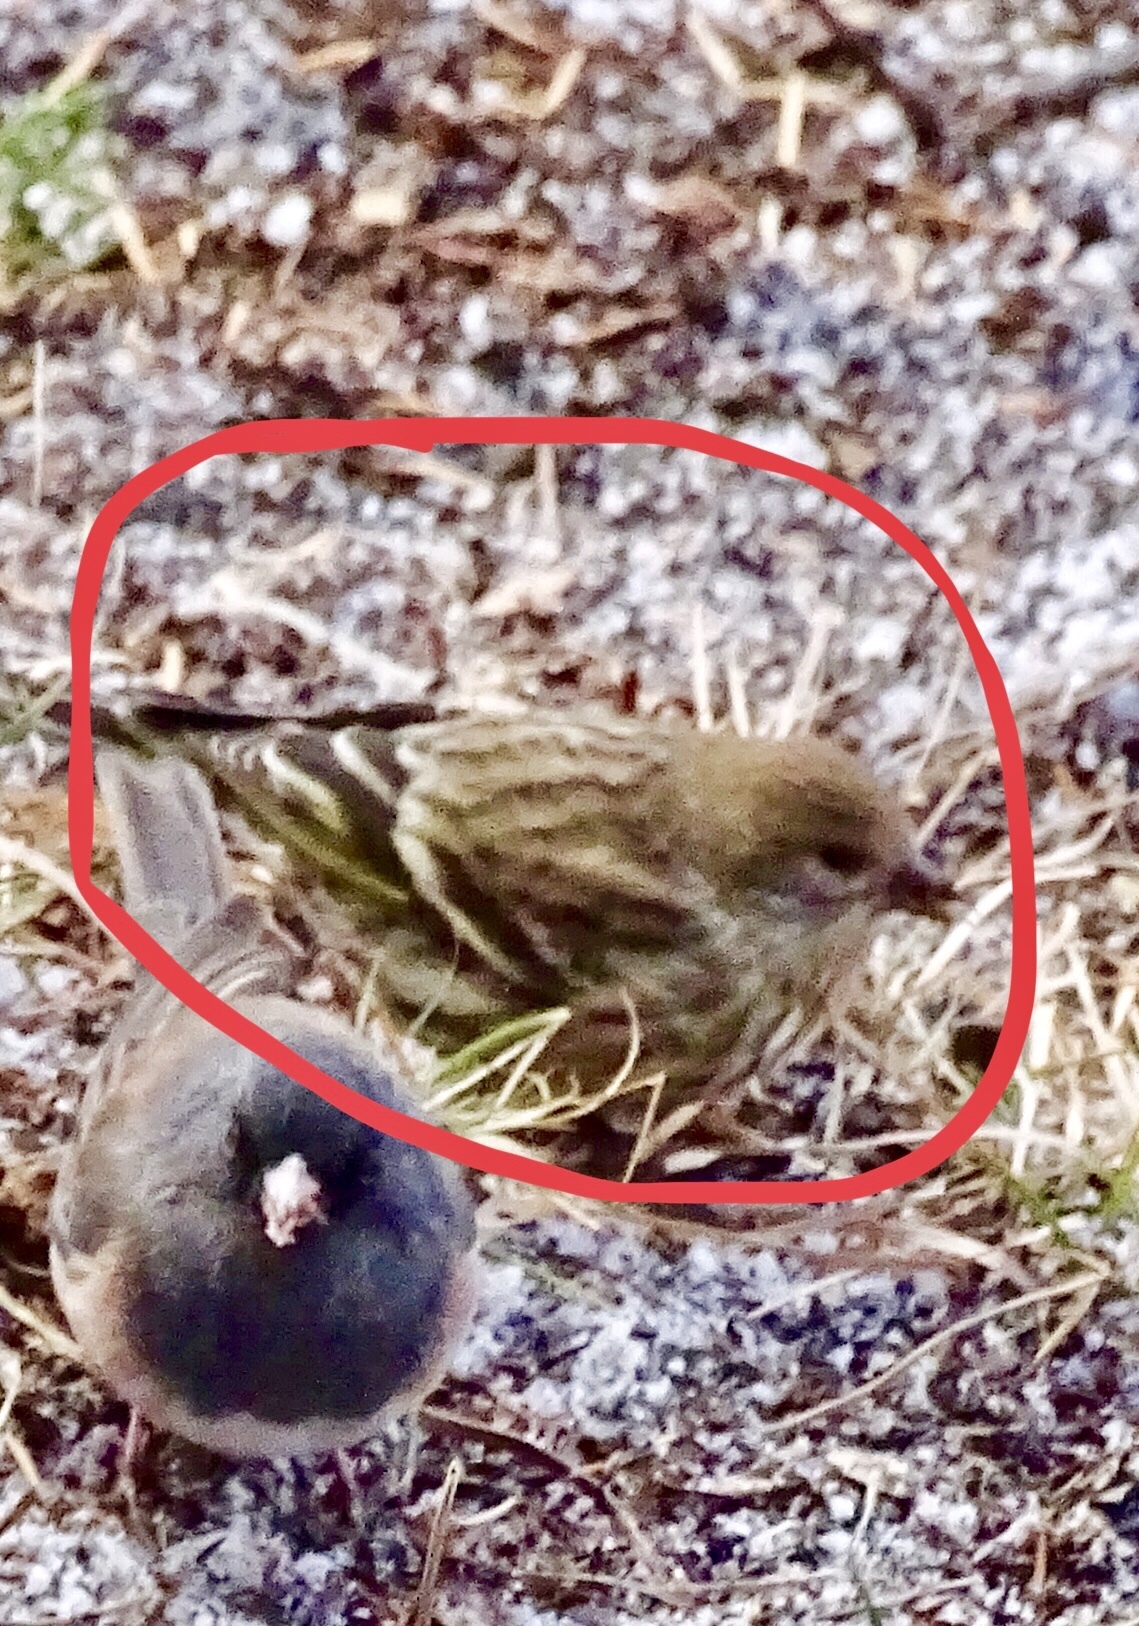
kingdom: Animalia
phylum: Chordata
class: Aves
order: Passeriformes
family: Fringillidae
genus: Spinus
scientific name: Spinus pinus
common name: Pine siskin
